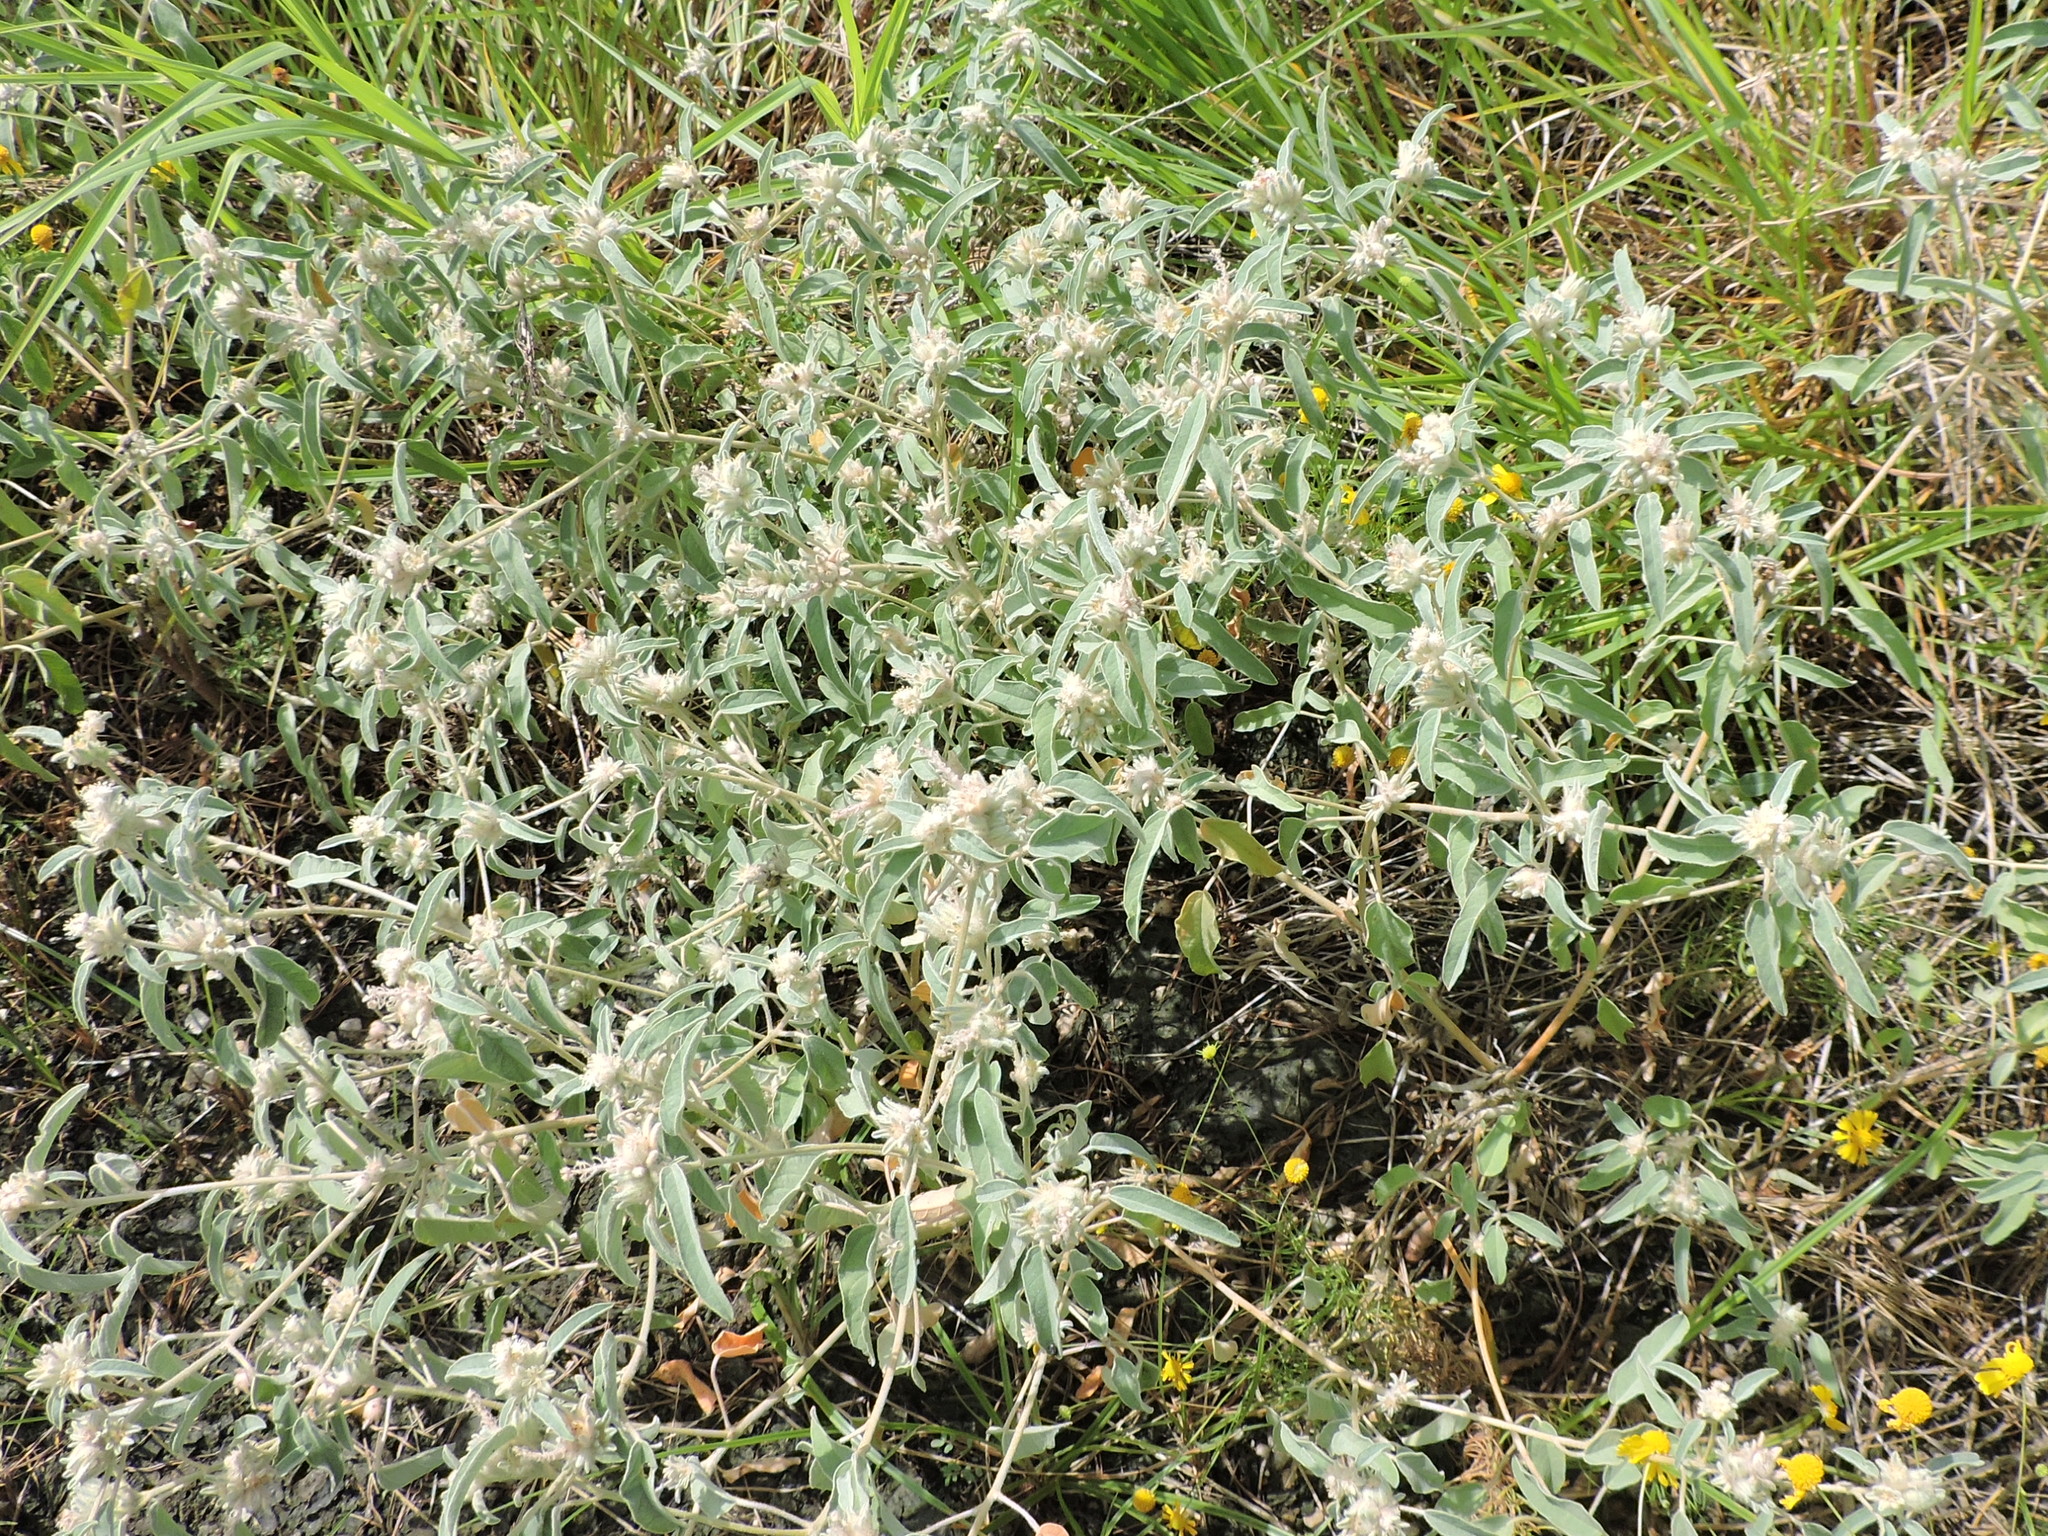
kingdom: Plantae
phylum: Tracheophyta
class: Magnoliopsida
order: Malpighiales
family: Euphorbiaceae
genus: Croton
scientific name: Croton capitatus
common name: Woolly croton
